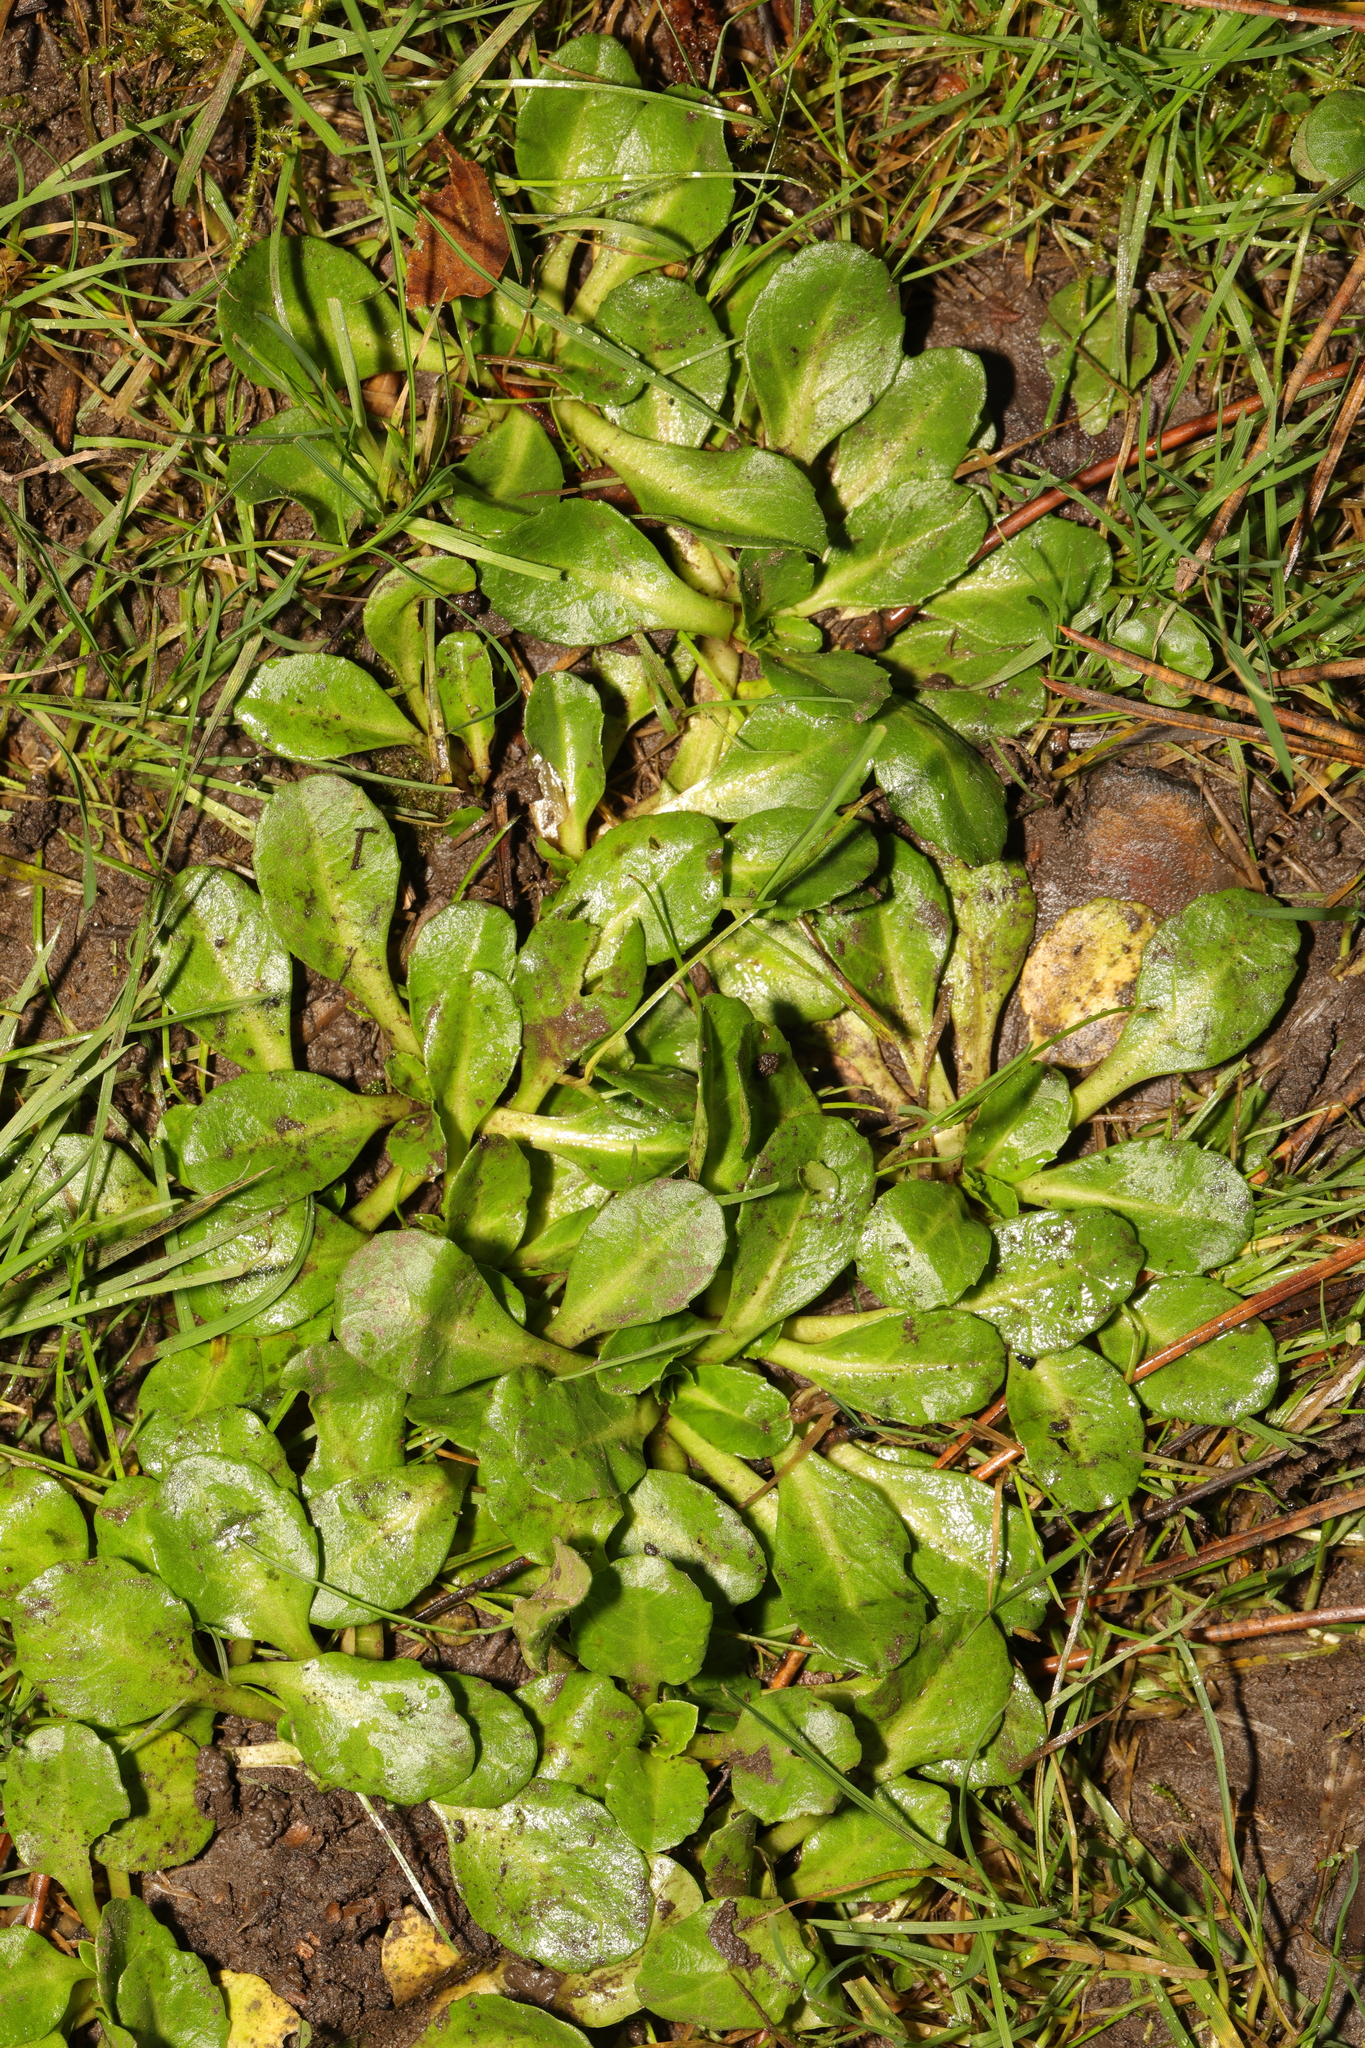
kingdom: Plantae
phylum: Tracheophyta
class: Magnoliopsida
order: Asterales
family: Asteraceae
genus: Bellis
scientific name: Bellis perennis
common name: Lawndaisy
